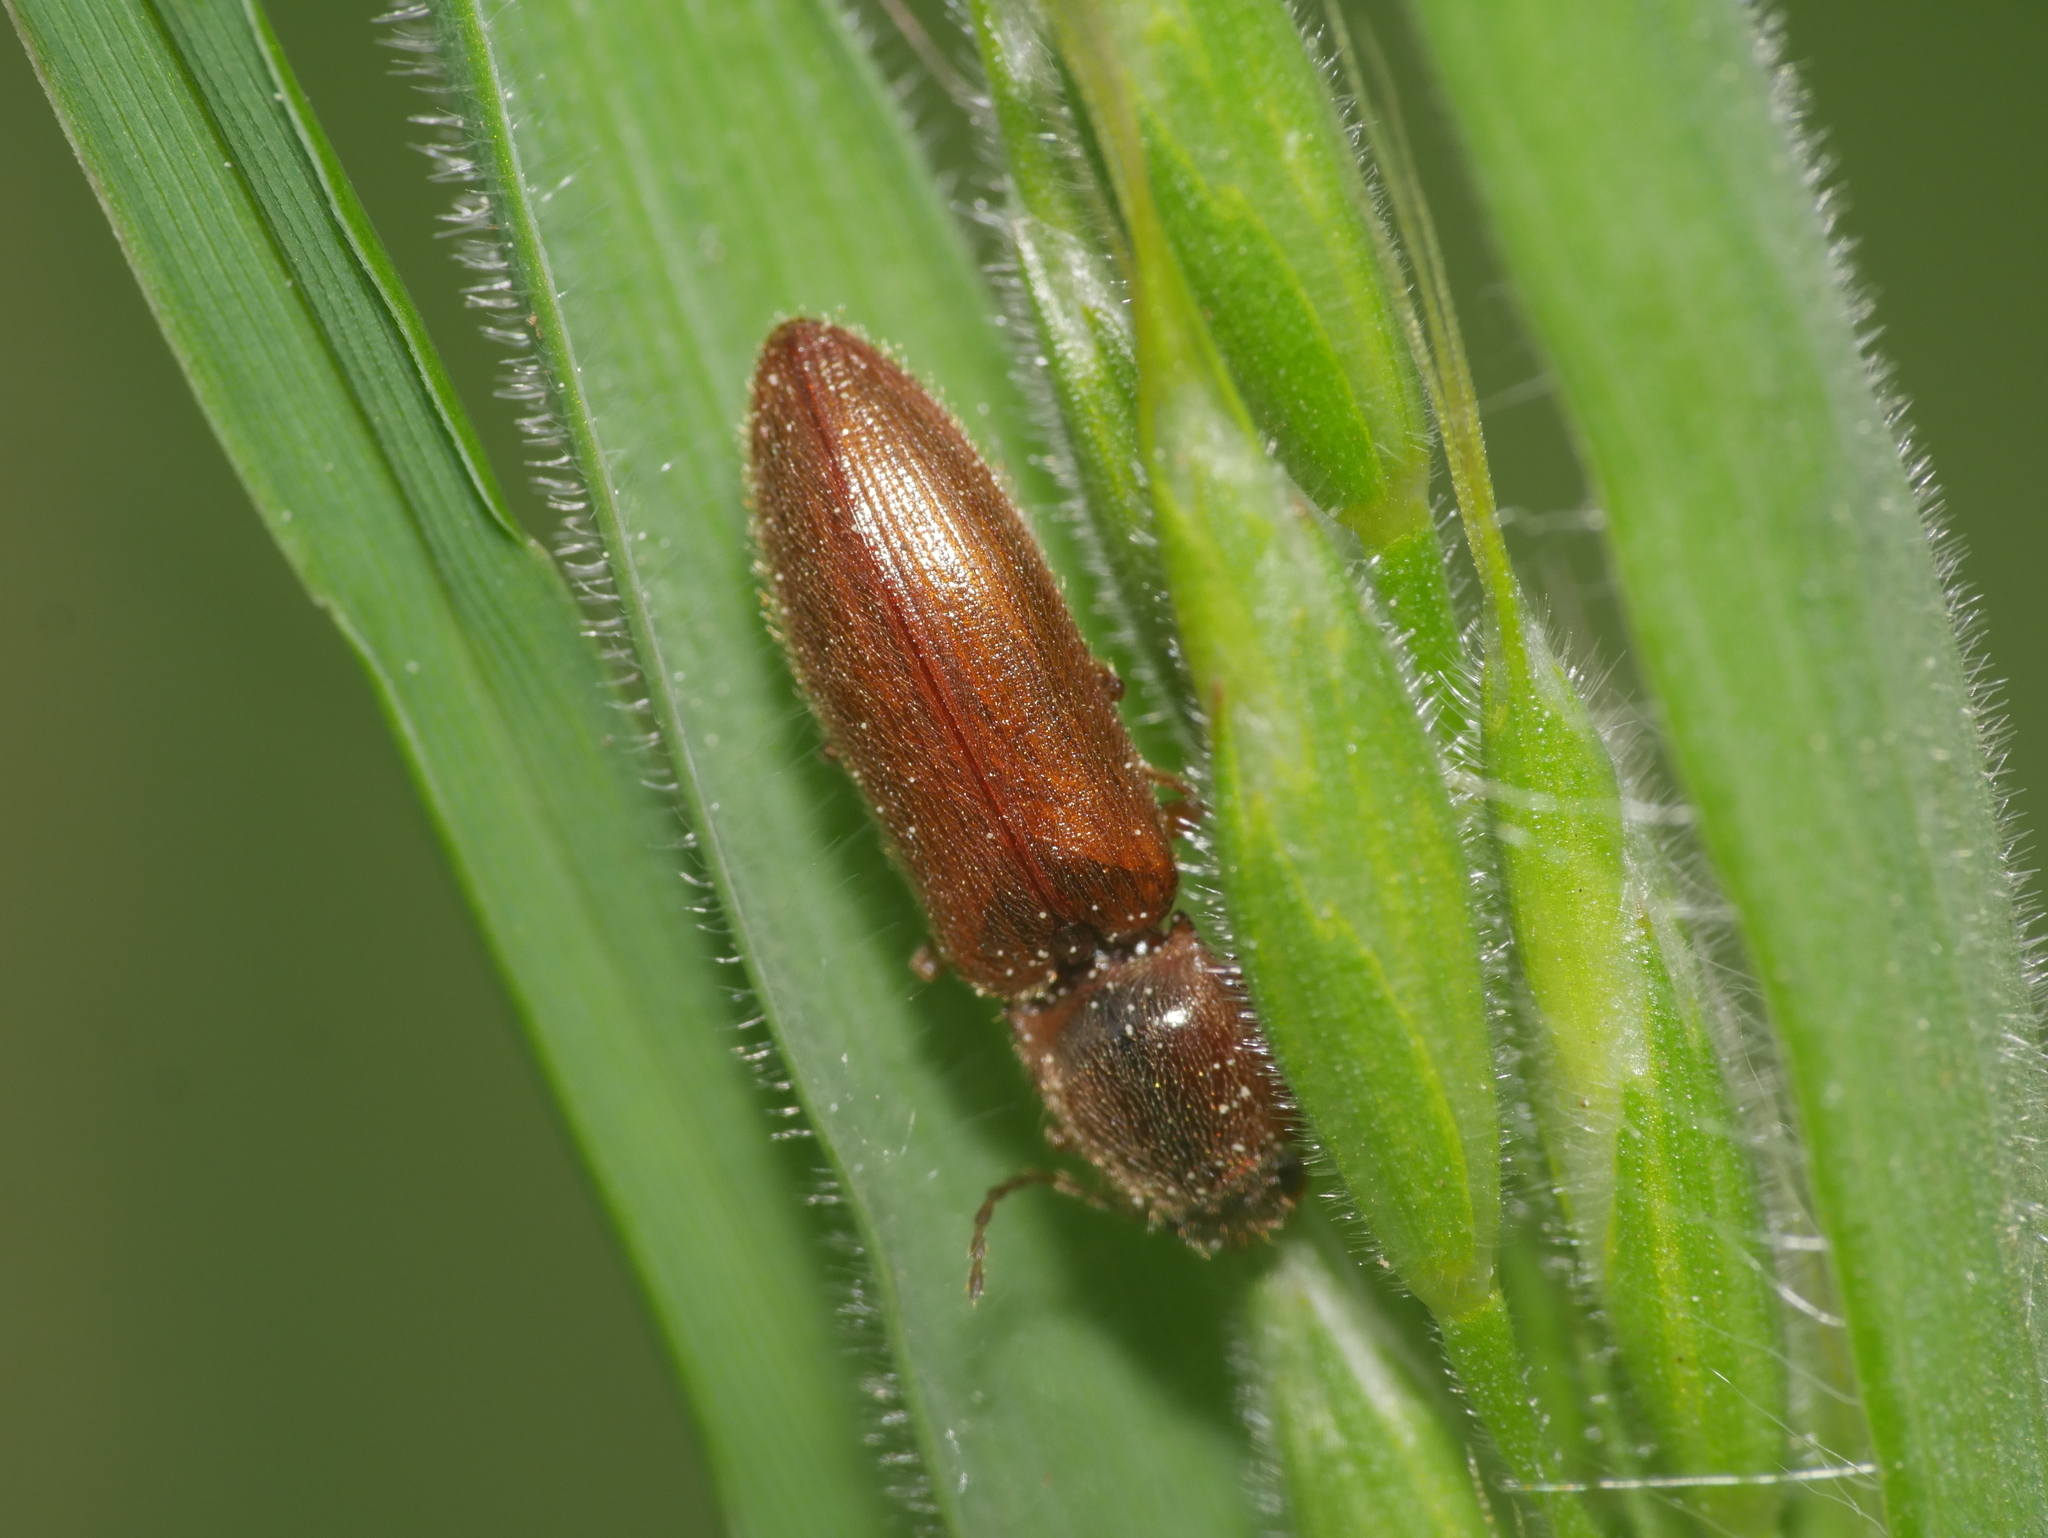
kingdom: Animalia
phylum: Arthropoda
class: Insecta
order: Coleoptera
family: Elateridae
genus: Athous
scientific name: Athous subfuscus
